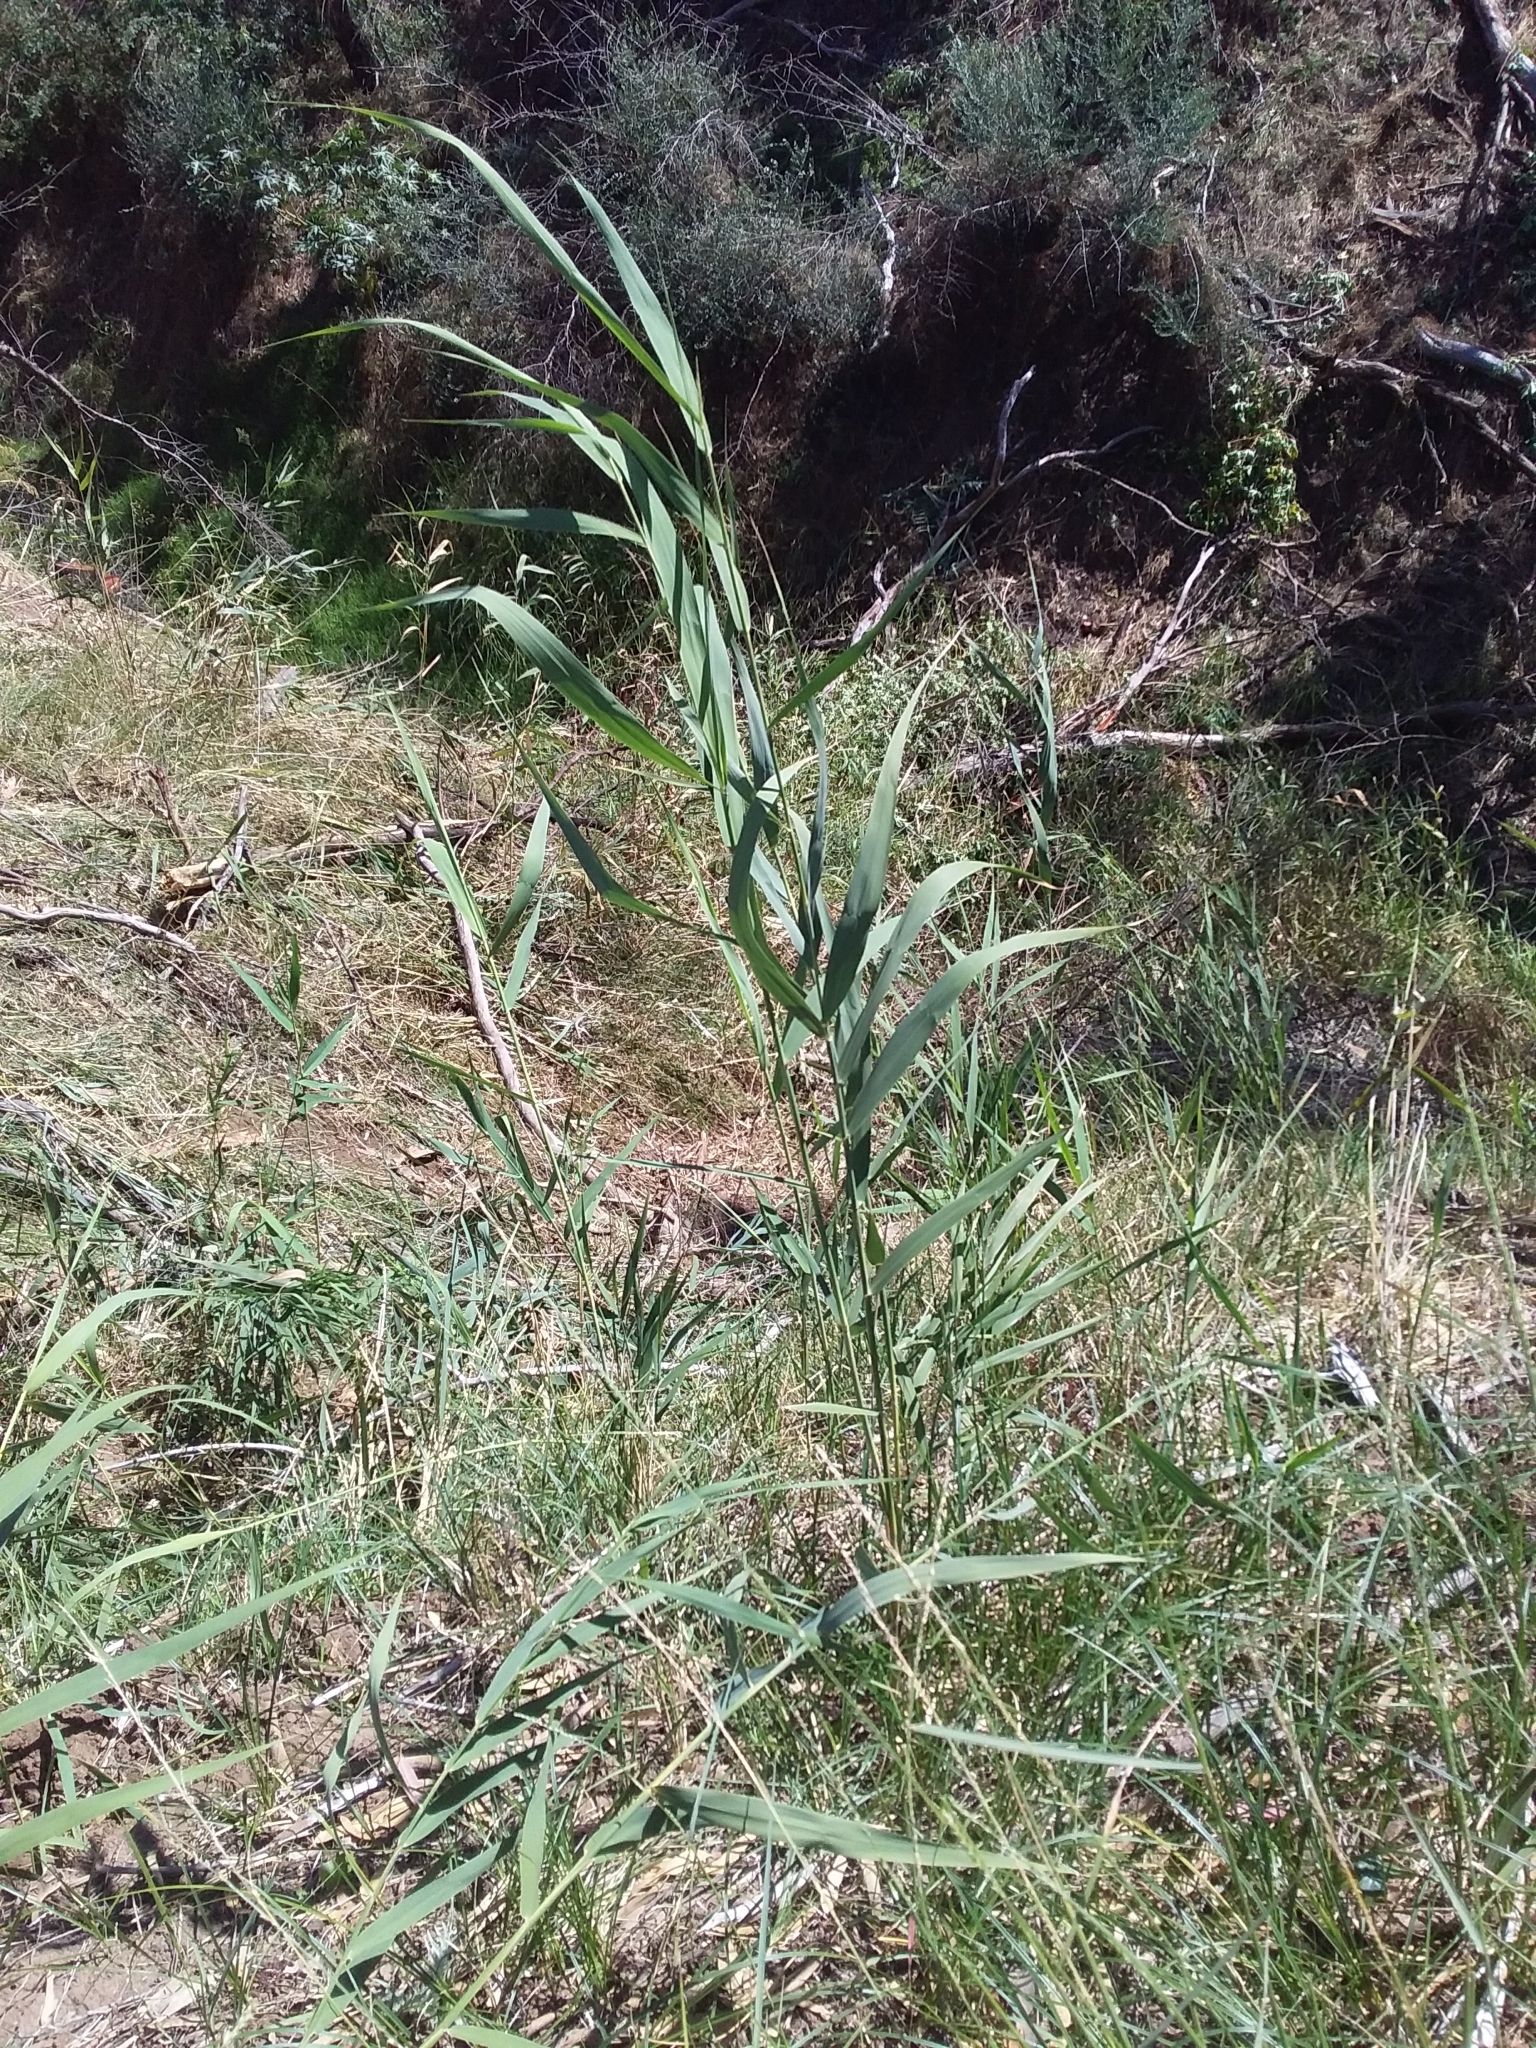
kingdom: Plantae
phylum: Tracheophyta
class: Liliopsida
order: Poales
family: Poaceae
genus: Phragmites
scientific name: Phragmites australis
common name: Common reed
